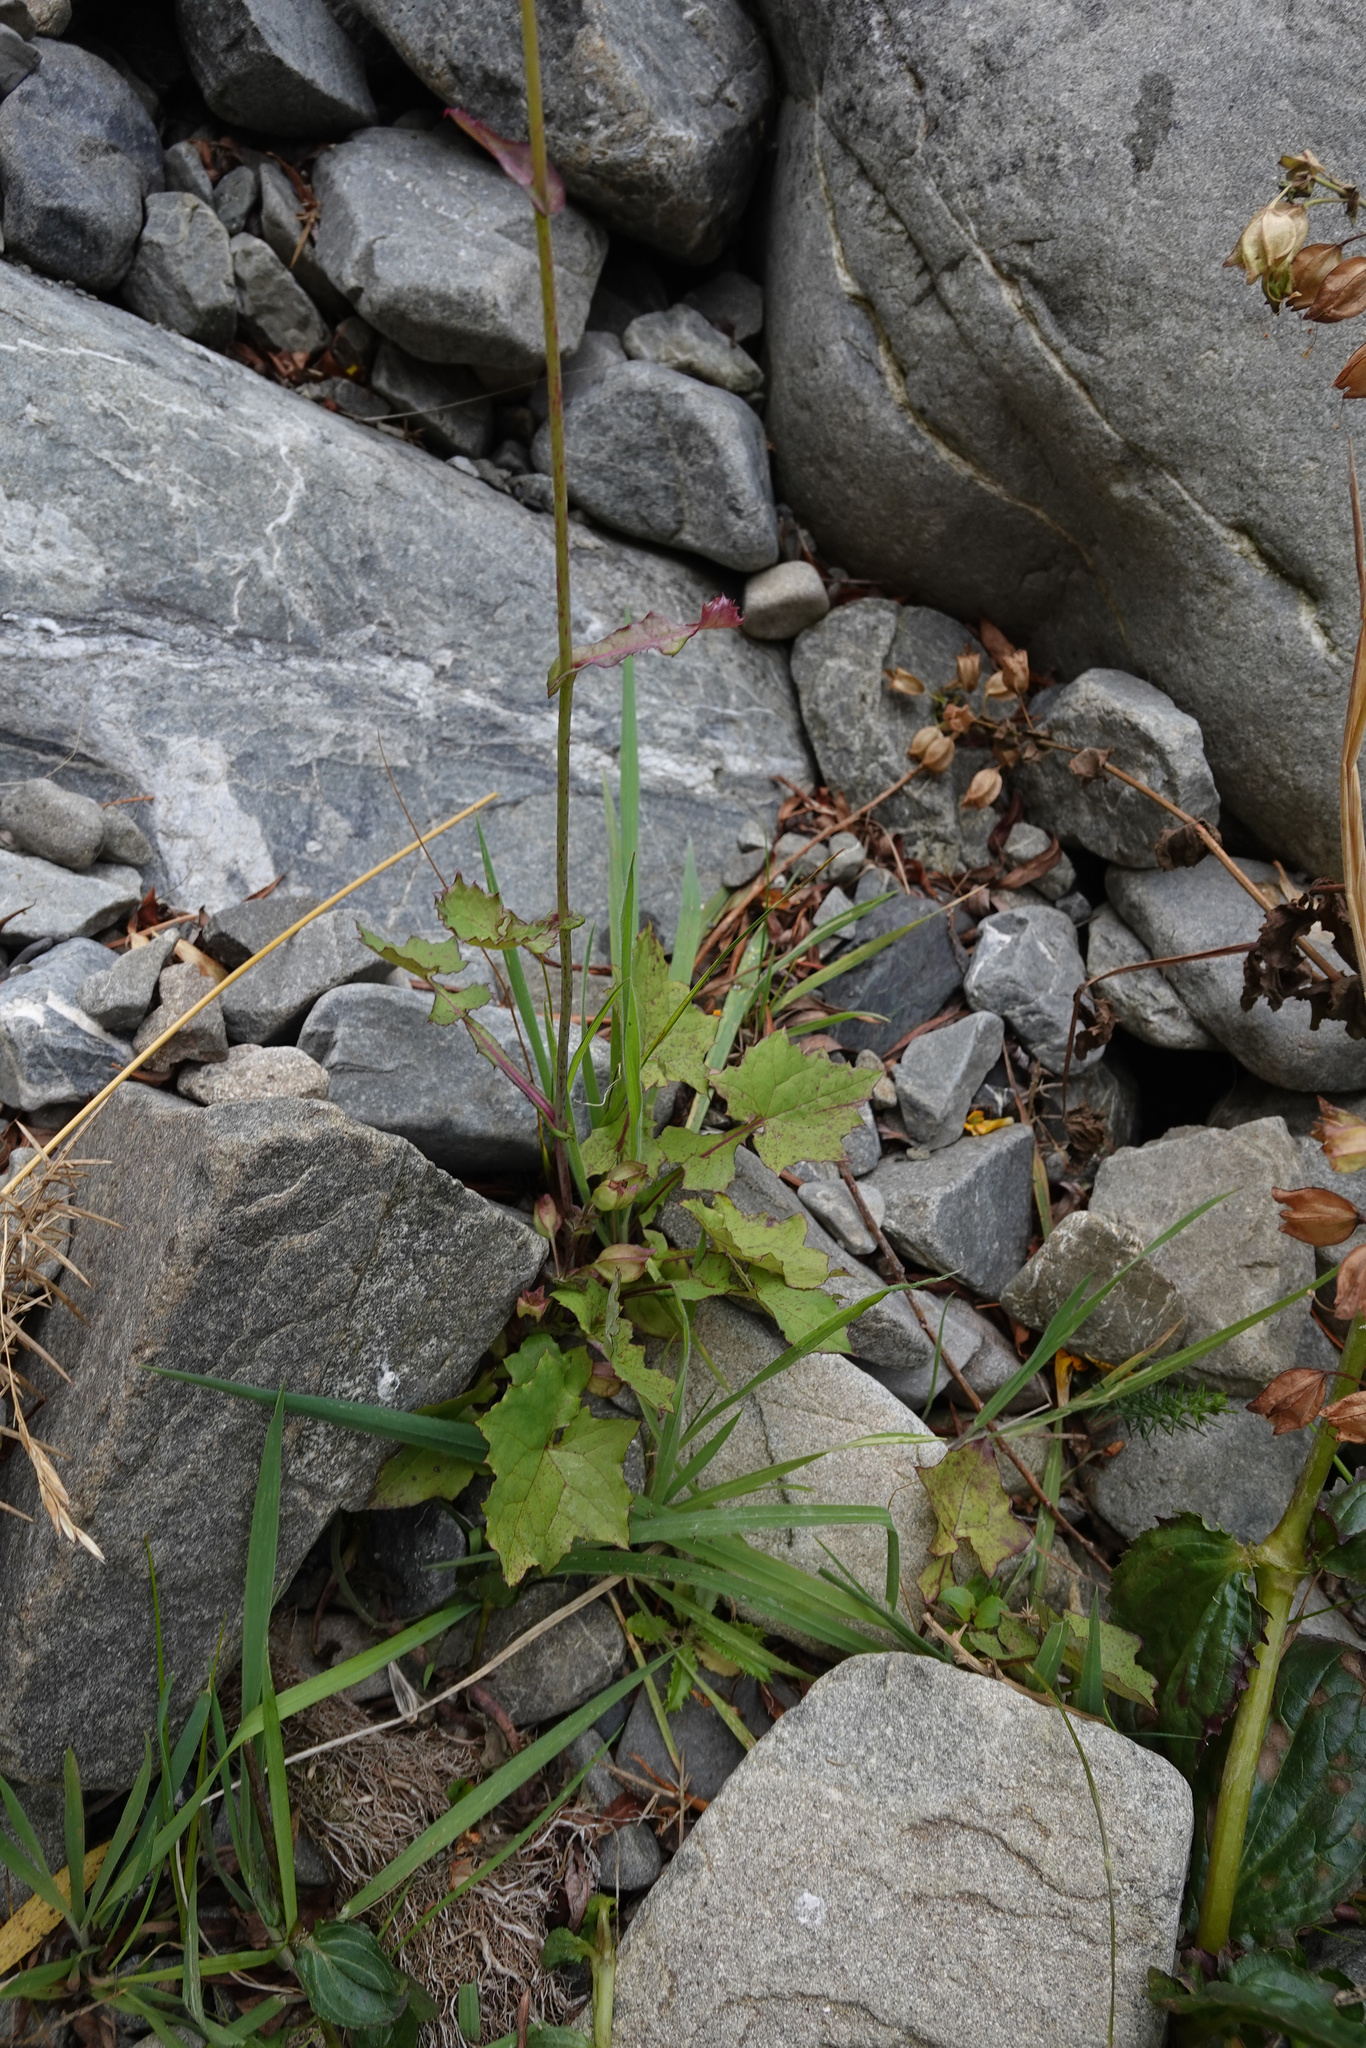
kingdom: Plantae
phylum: Tracheophyta
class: Magnoliopsida
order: Asterales
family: Asteraceae
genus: Mycelis
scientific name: Mycelis muralis
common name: Wall lettuce
